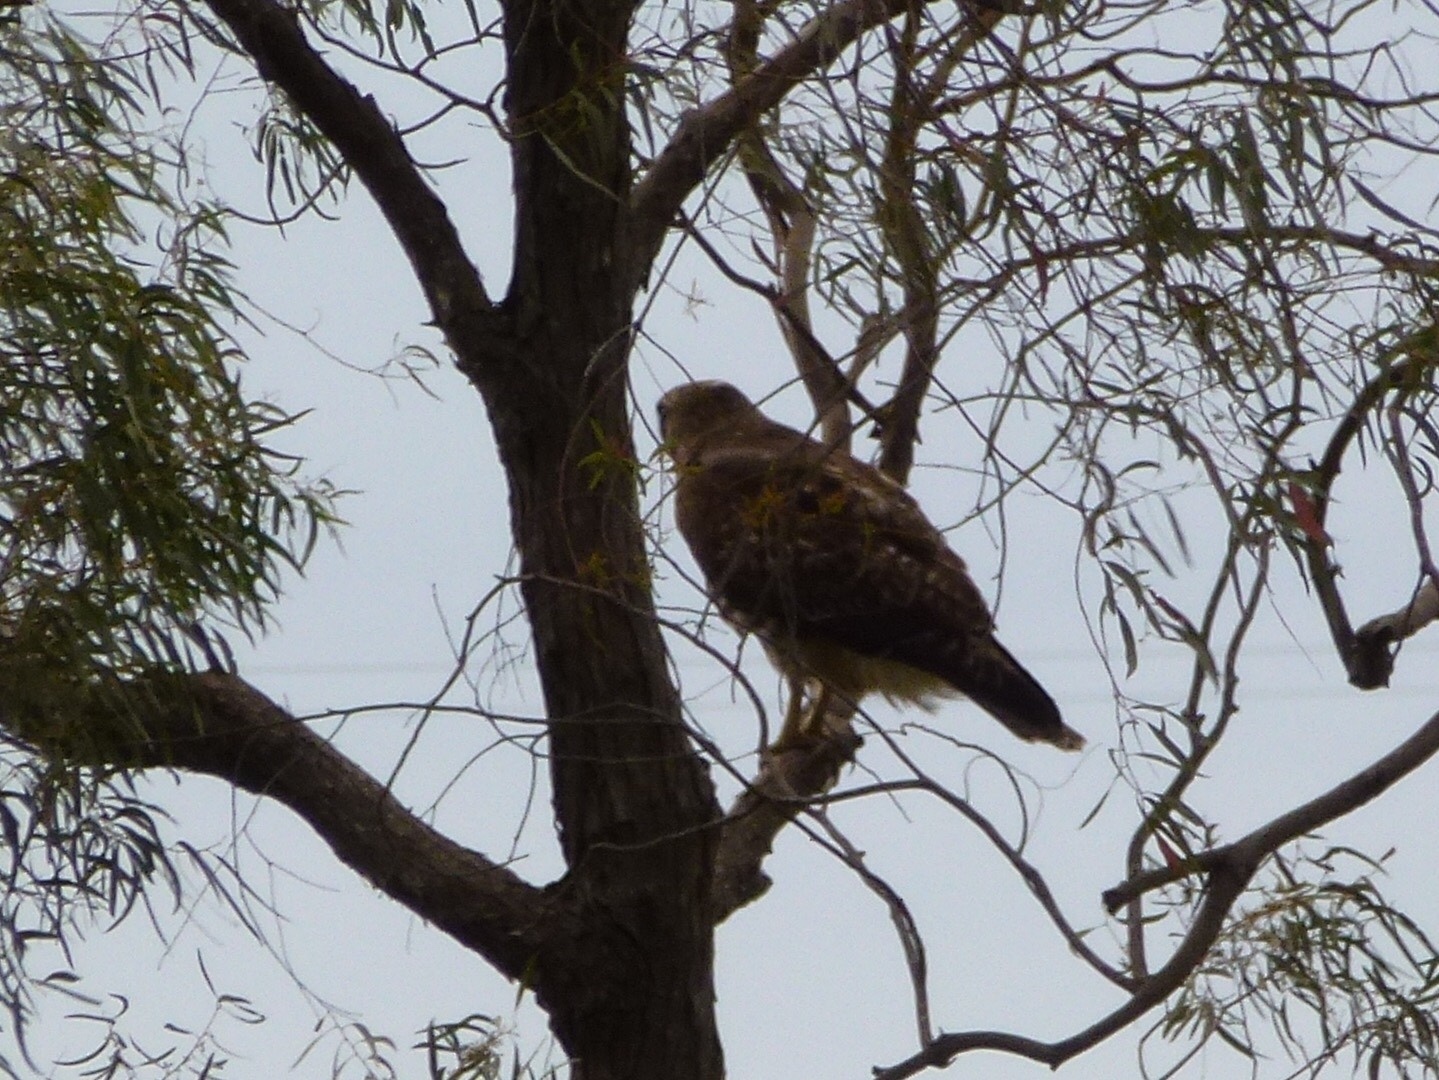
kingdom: Animalia
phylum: Chordata
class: Aves
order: Accipitriformes
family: Accipitridae
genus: Buteo
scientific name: Buteo jamaicensis
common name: Red-tailed hawk
